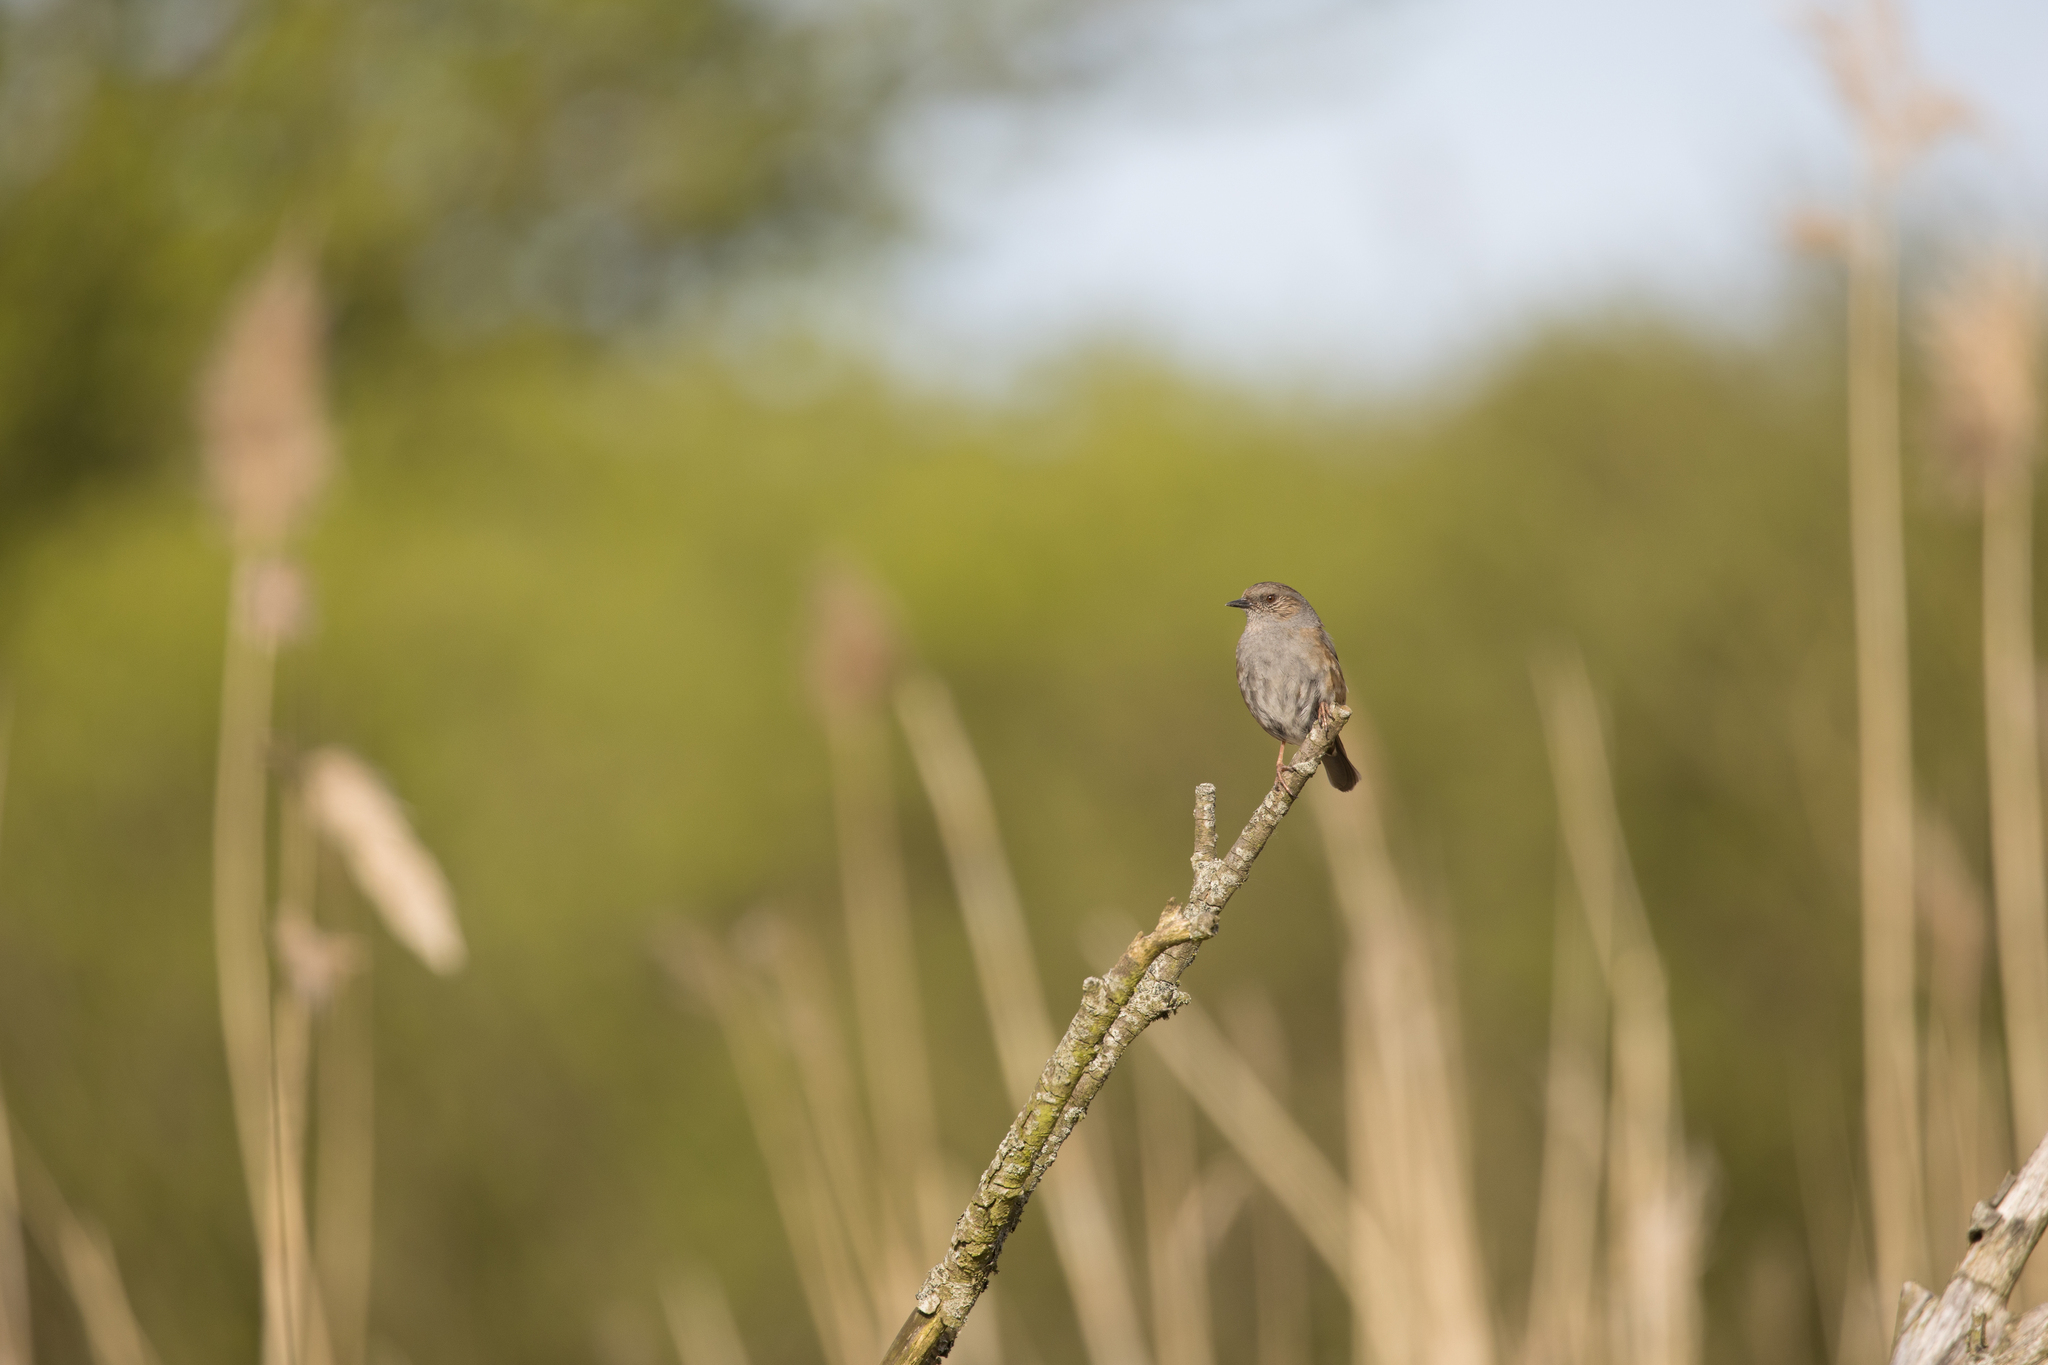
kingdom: Animalia
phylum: Chordata
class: Aves
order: Passeriformes
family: Prunellidae
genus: Prunella
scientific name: Prunella modularis
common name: Dunnock
